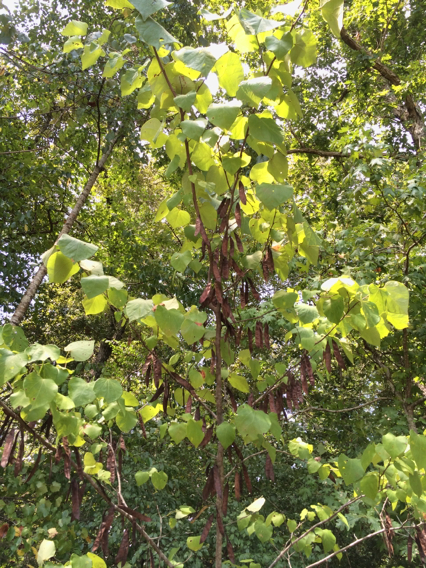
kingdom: Plantae
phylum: Tracheophyta
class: Magnoliopsida
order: Fabales
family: Fabaceae
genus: Cercis
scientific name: Cercis canadensis
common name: Eastern redbud
